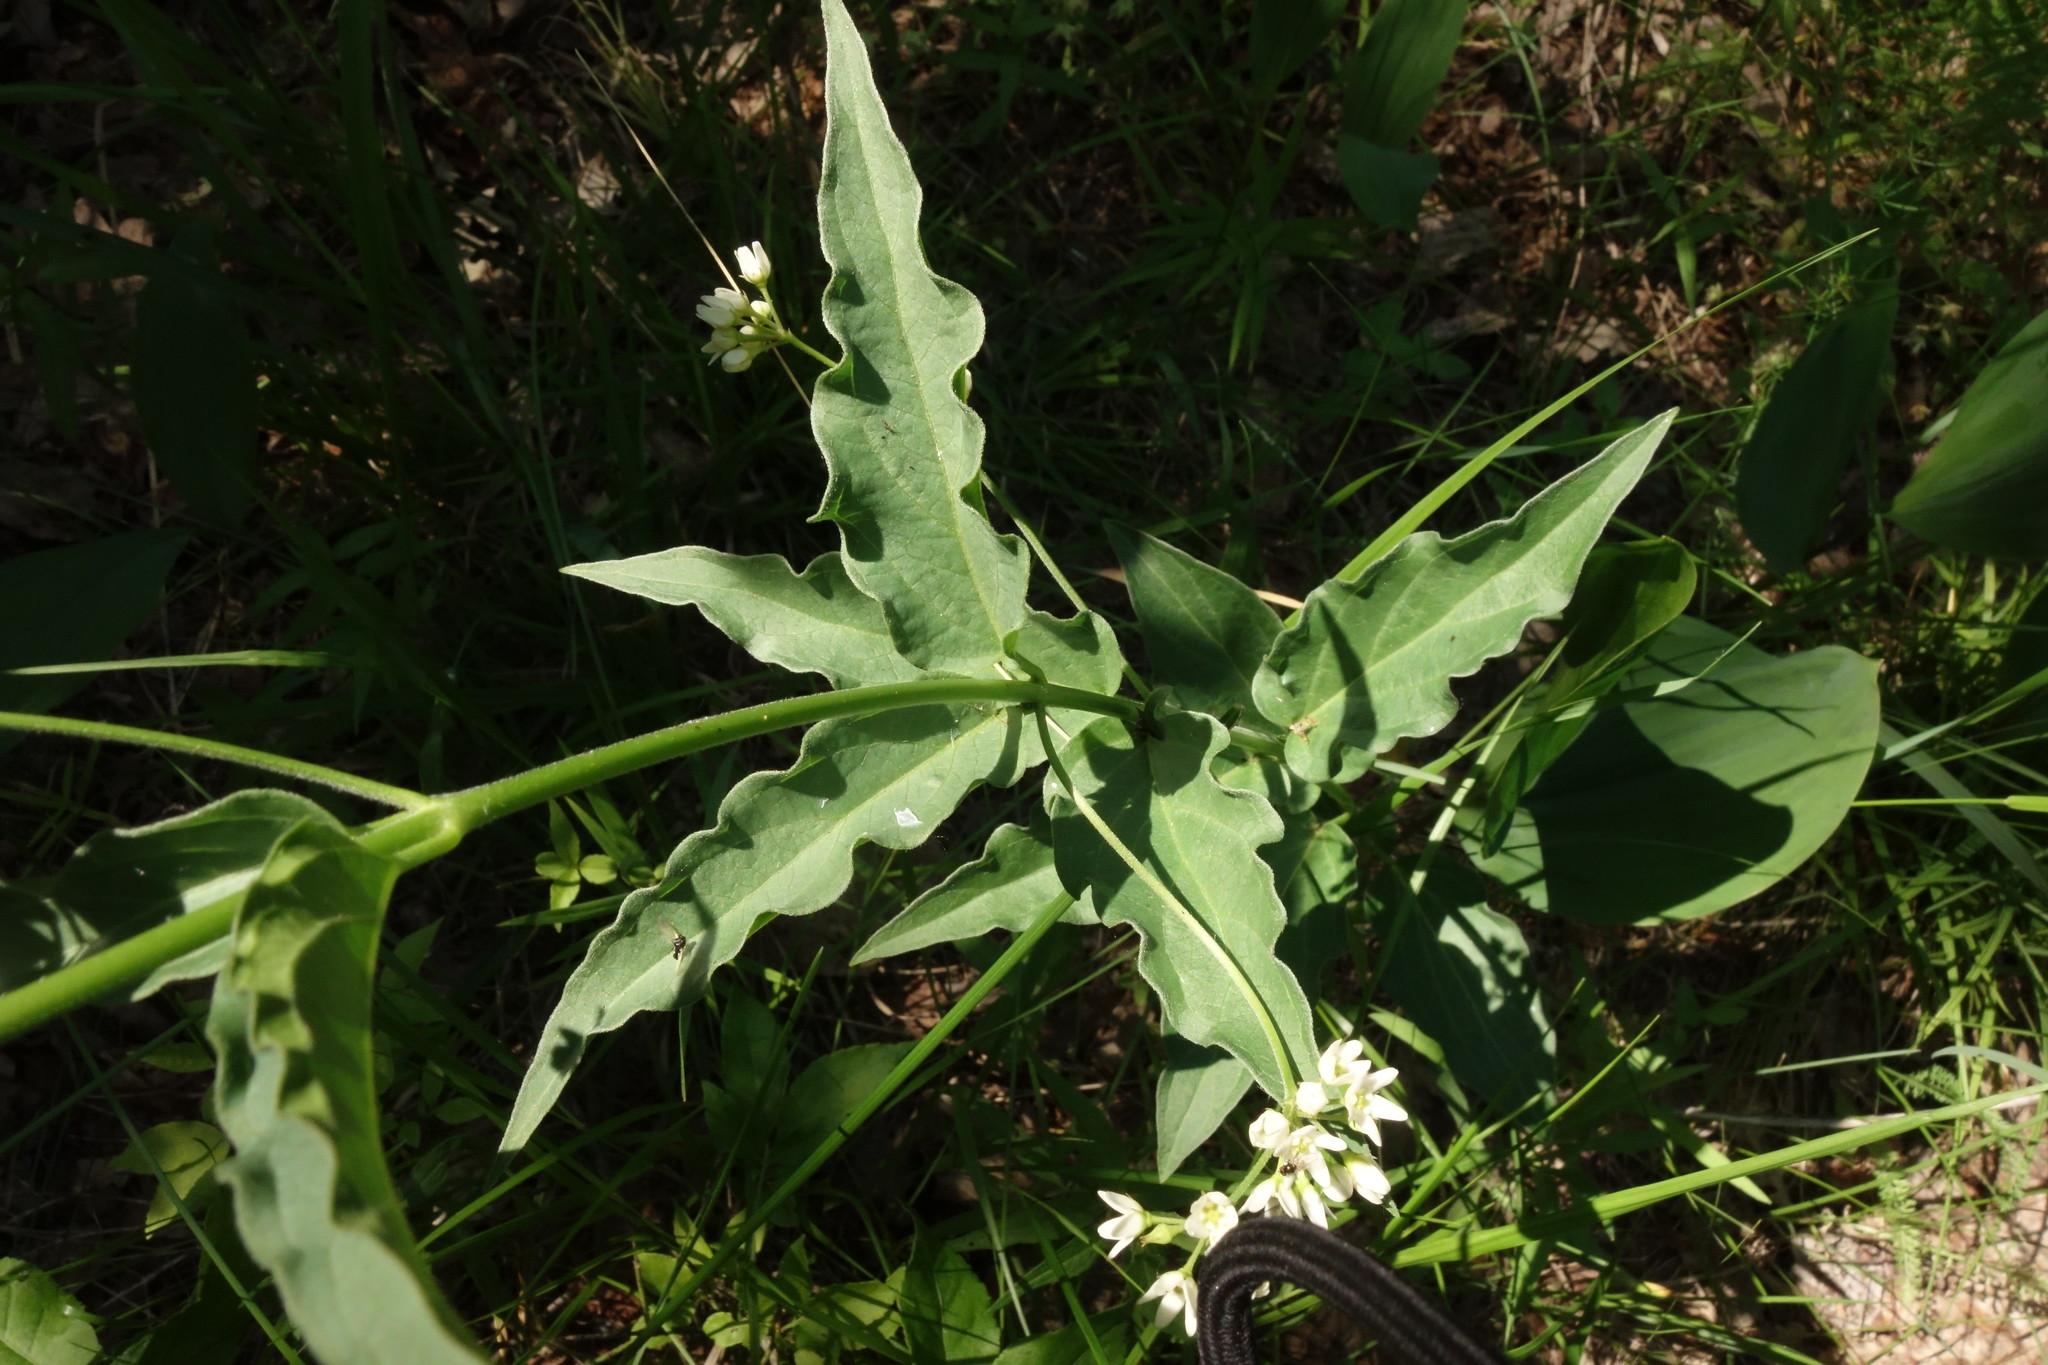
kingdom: Plantae
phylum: Tracheophyta
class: Magnoliopsida
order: Gentianales
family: Apocynaceae
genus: Vincetoxicum
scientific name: Vincetoxicum hirundinaria
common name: White swallowwort
